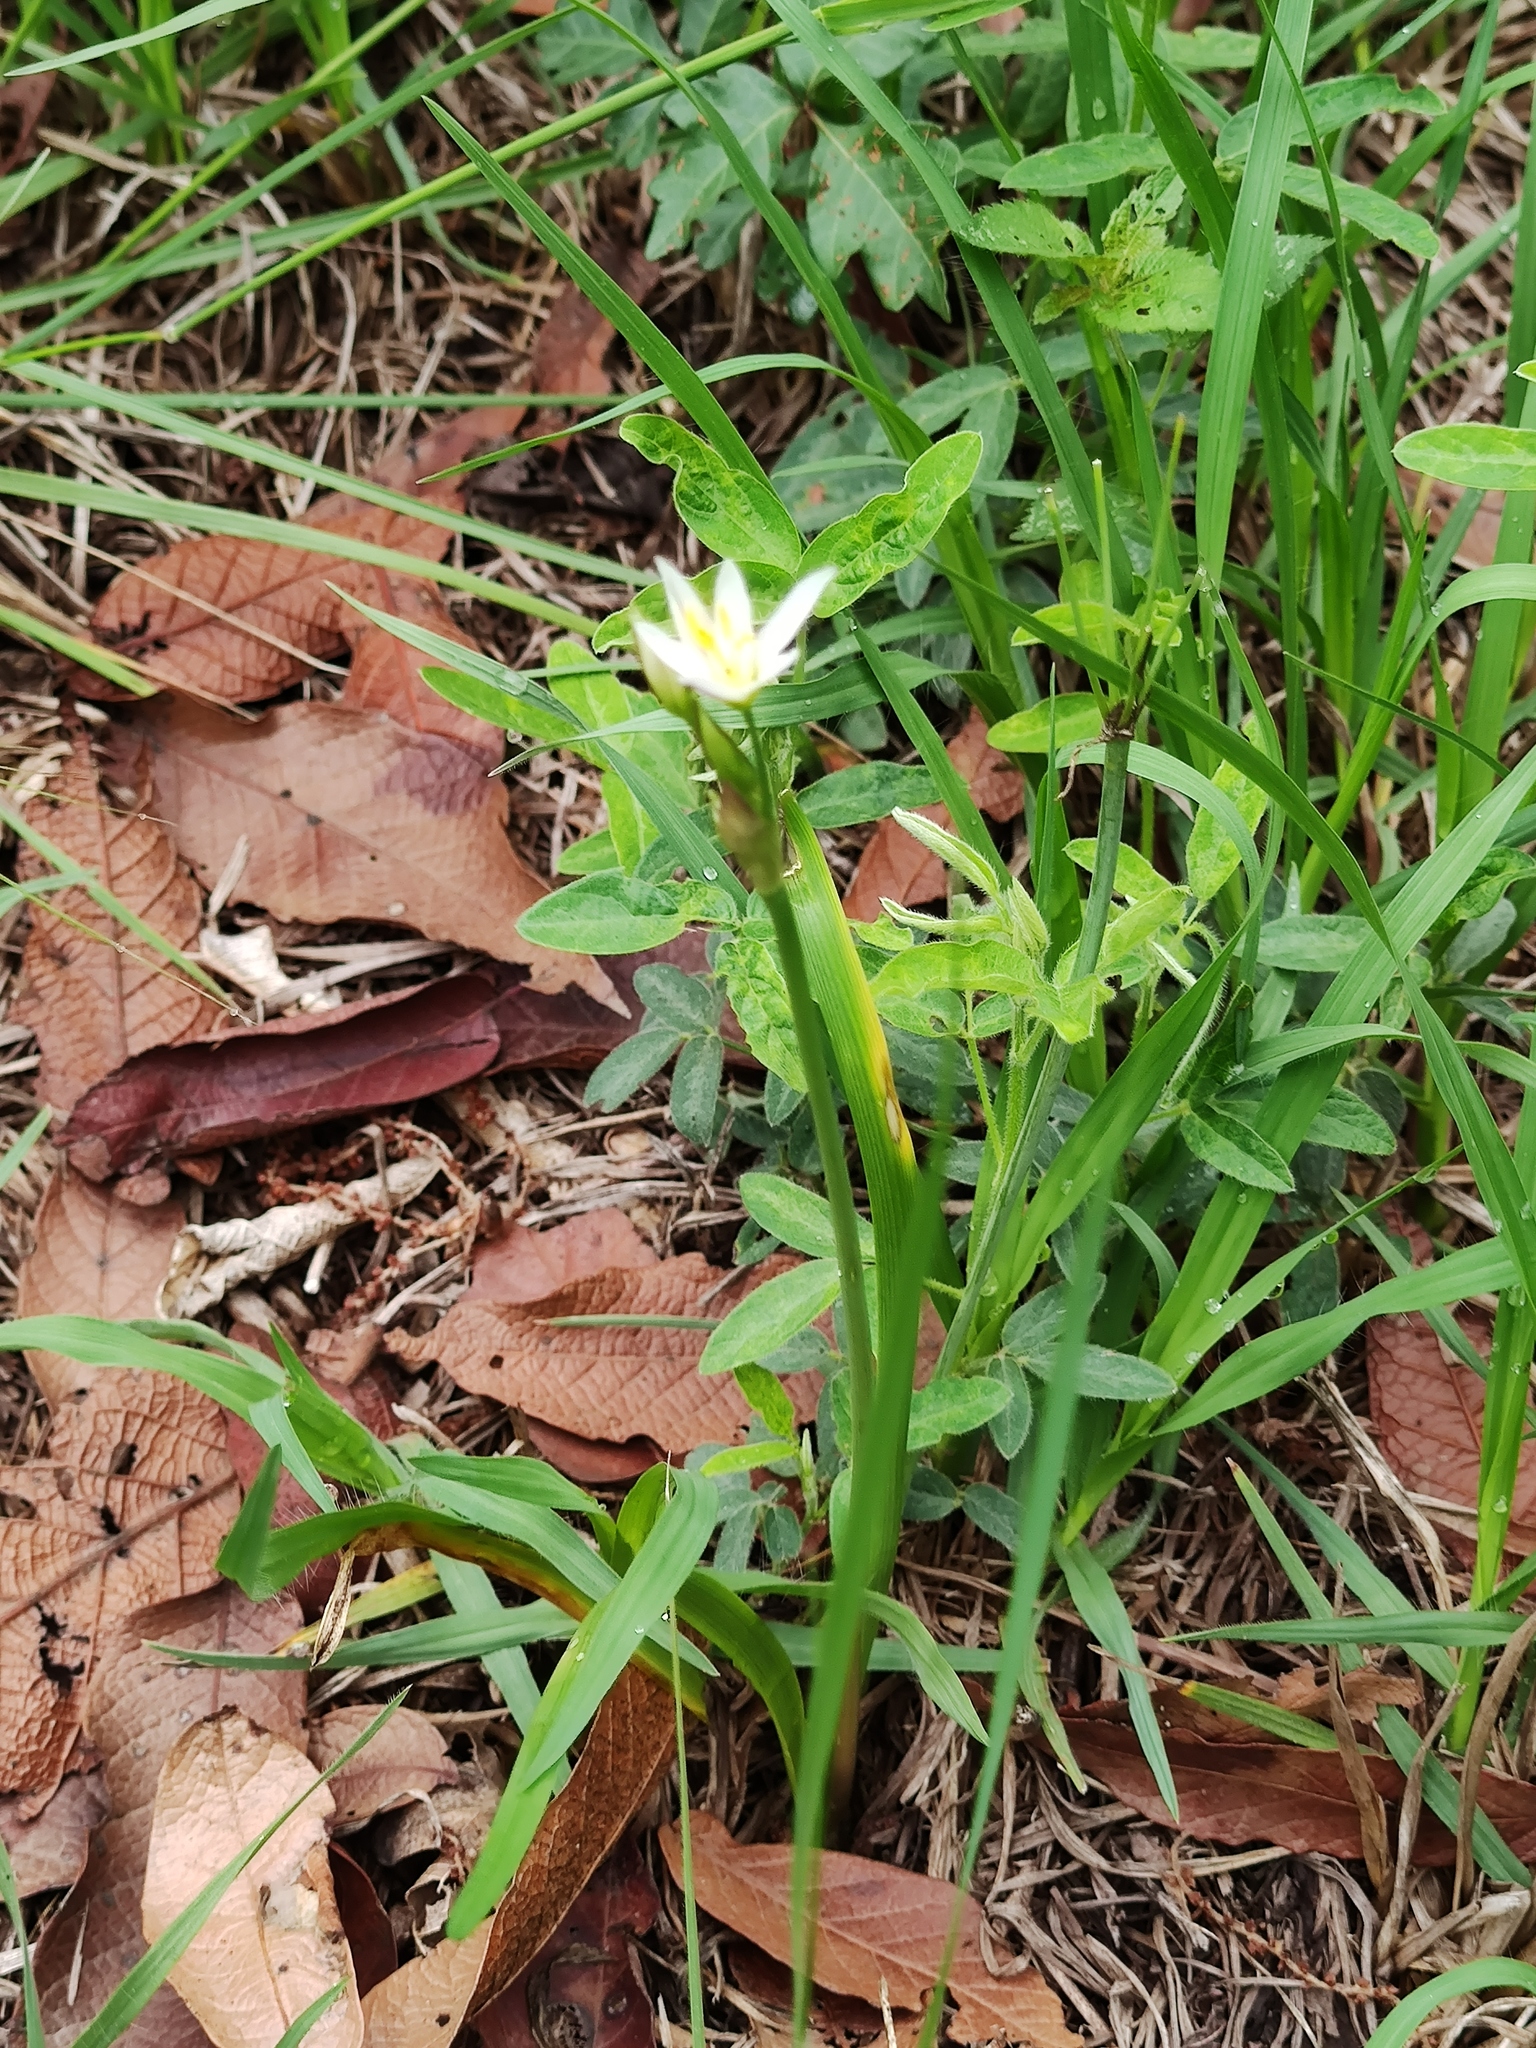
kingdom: Plantae
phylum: Tracheophyta
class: Liliopsida
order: Asparagales
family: Amaryllidaceae
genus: Nothoscordum
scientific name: Nothoscordum bivalve
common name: Crow-poison
